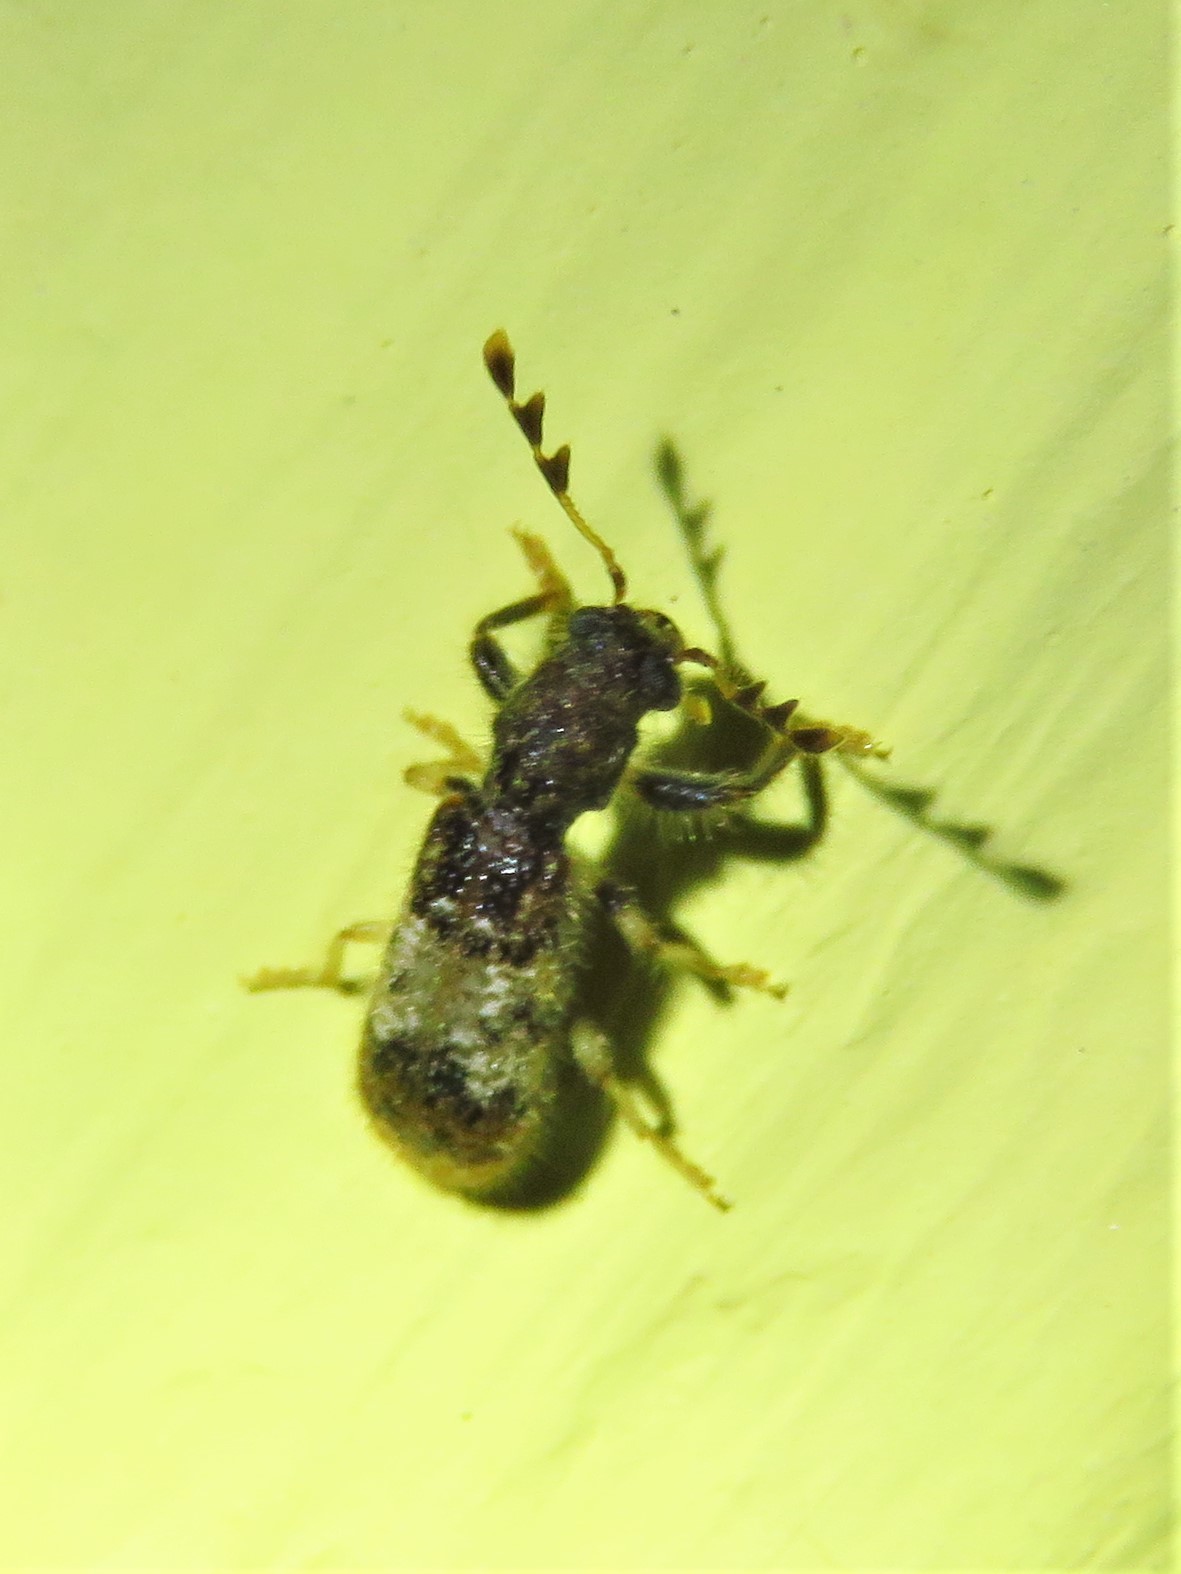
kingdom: Animalia
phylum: Arthropoda
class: Insecta
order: Coleoptera
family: Cleridae
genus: Pelonium
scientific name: Pelonium leucophaeum
